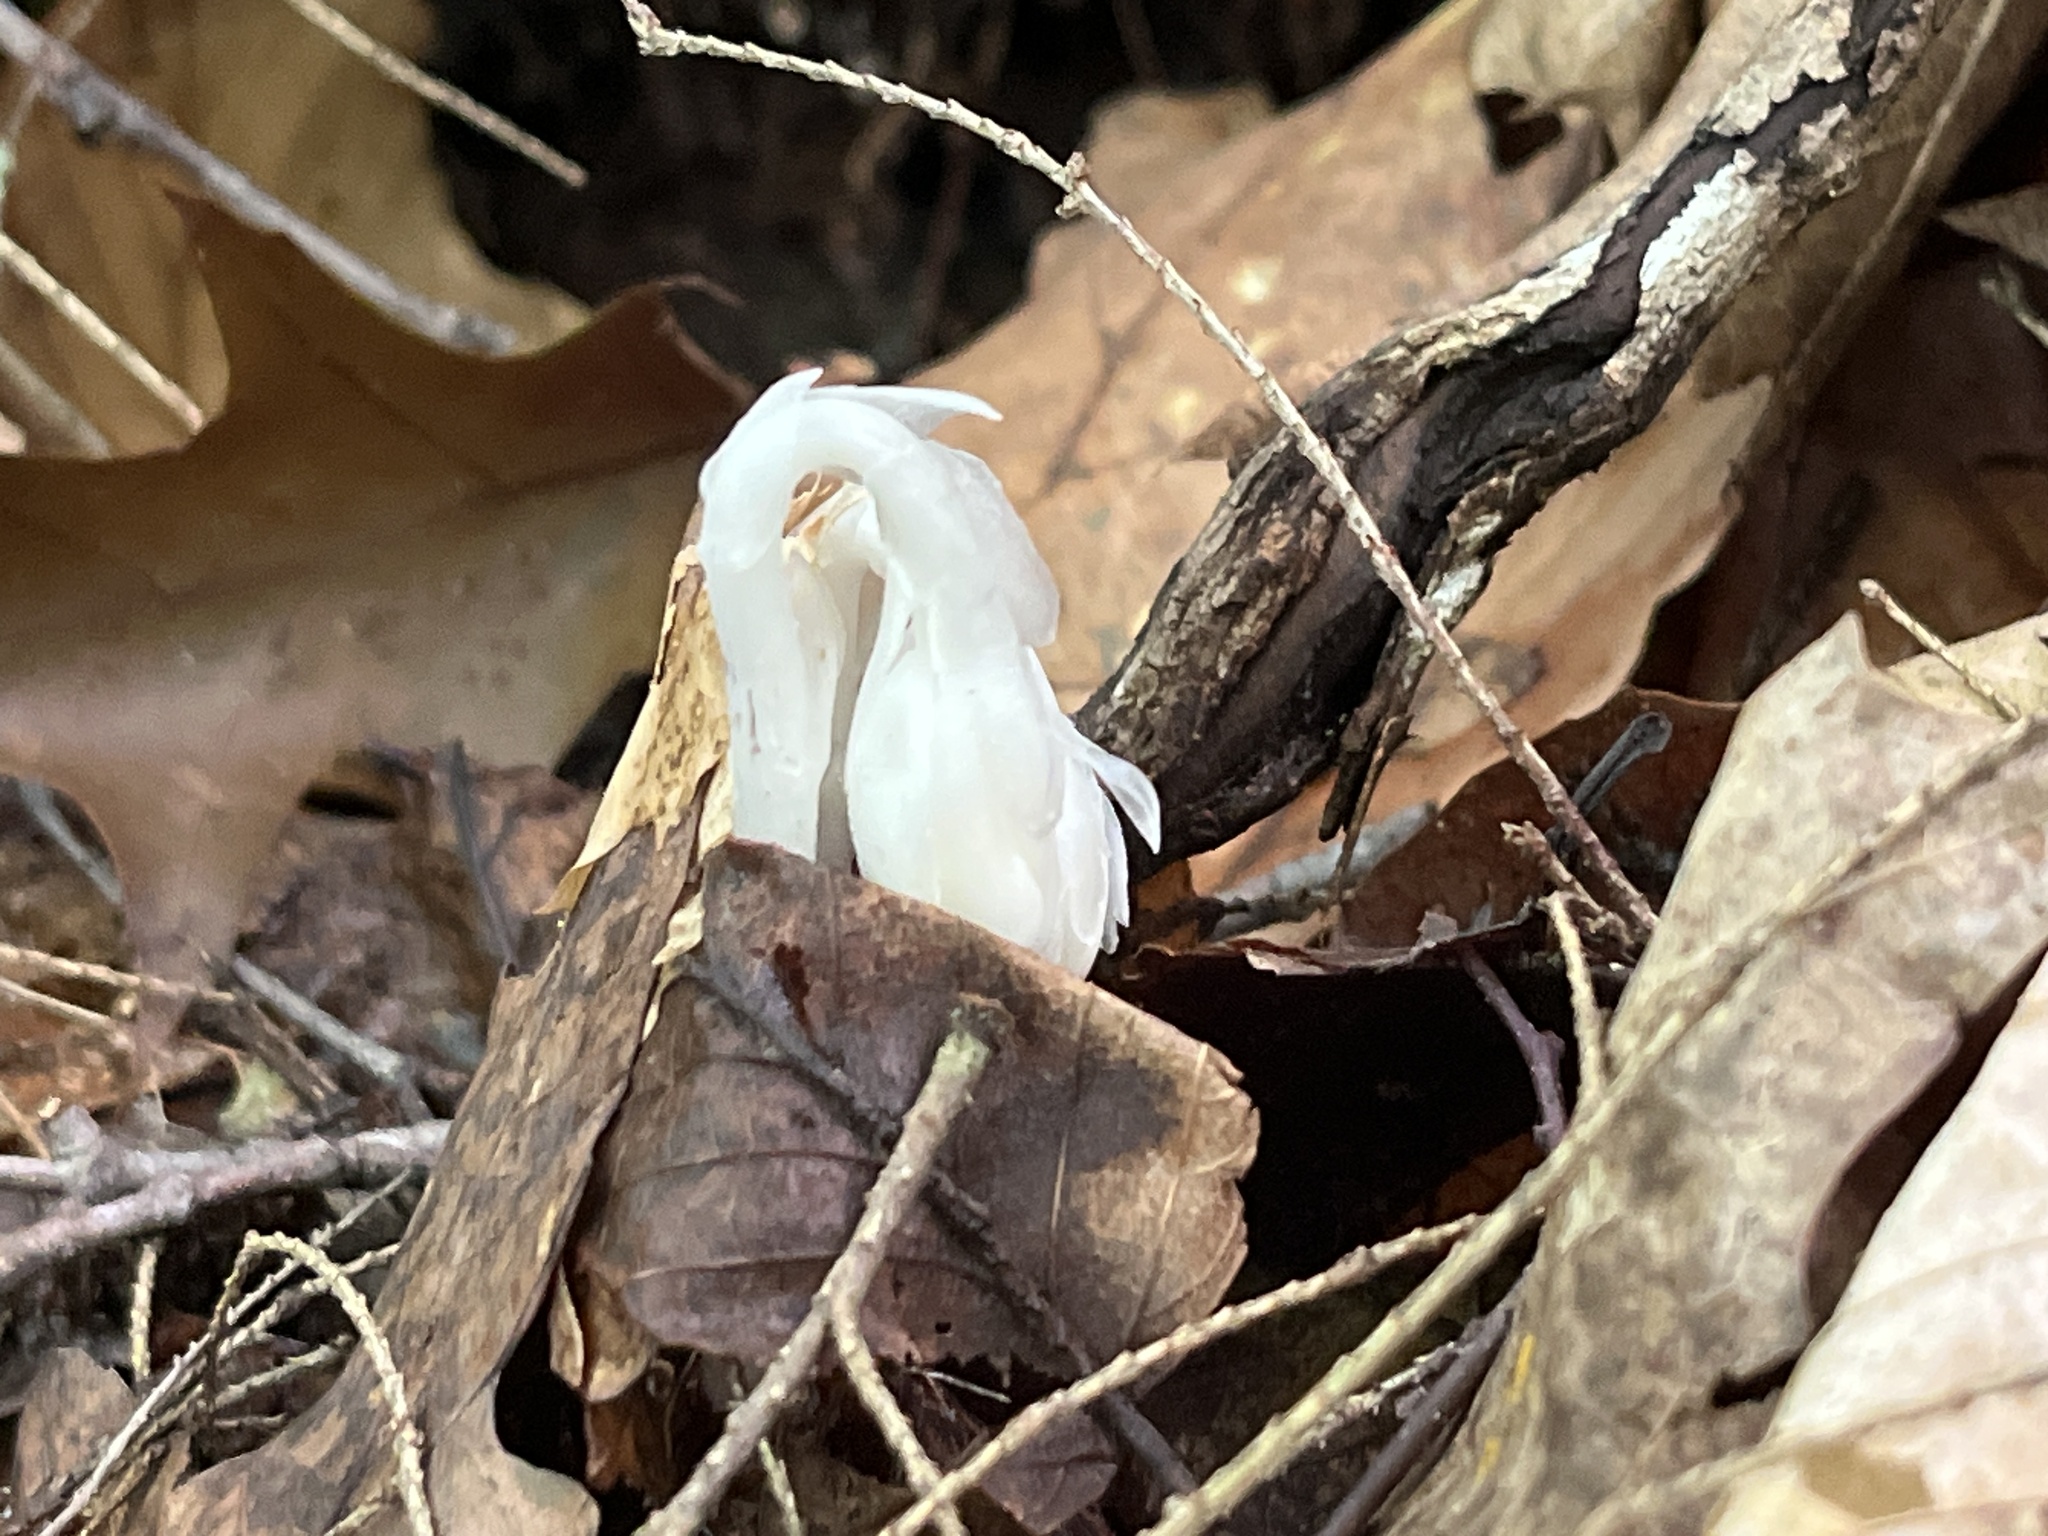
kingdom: Plantae
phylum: Tracheophyta
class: Magnoliopsida
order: Ericales
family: Ericaceae
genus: Monotropa
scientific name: Monotropa uniflora
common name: Convulsion root
